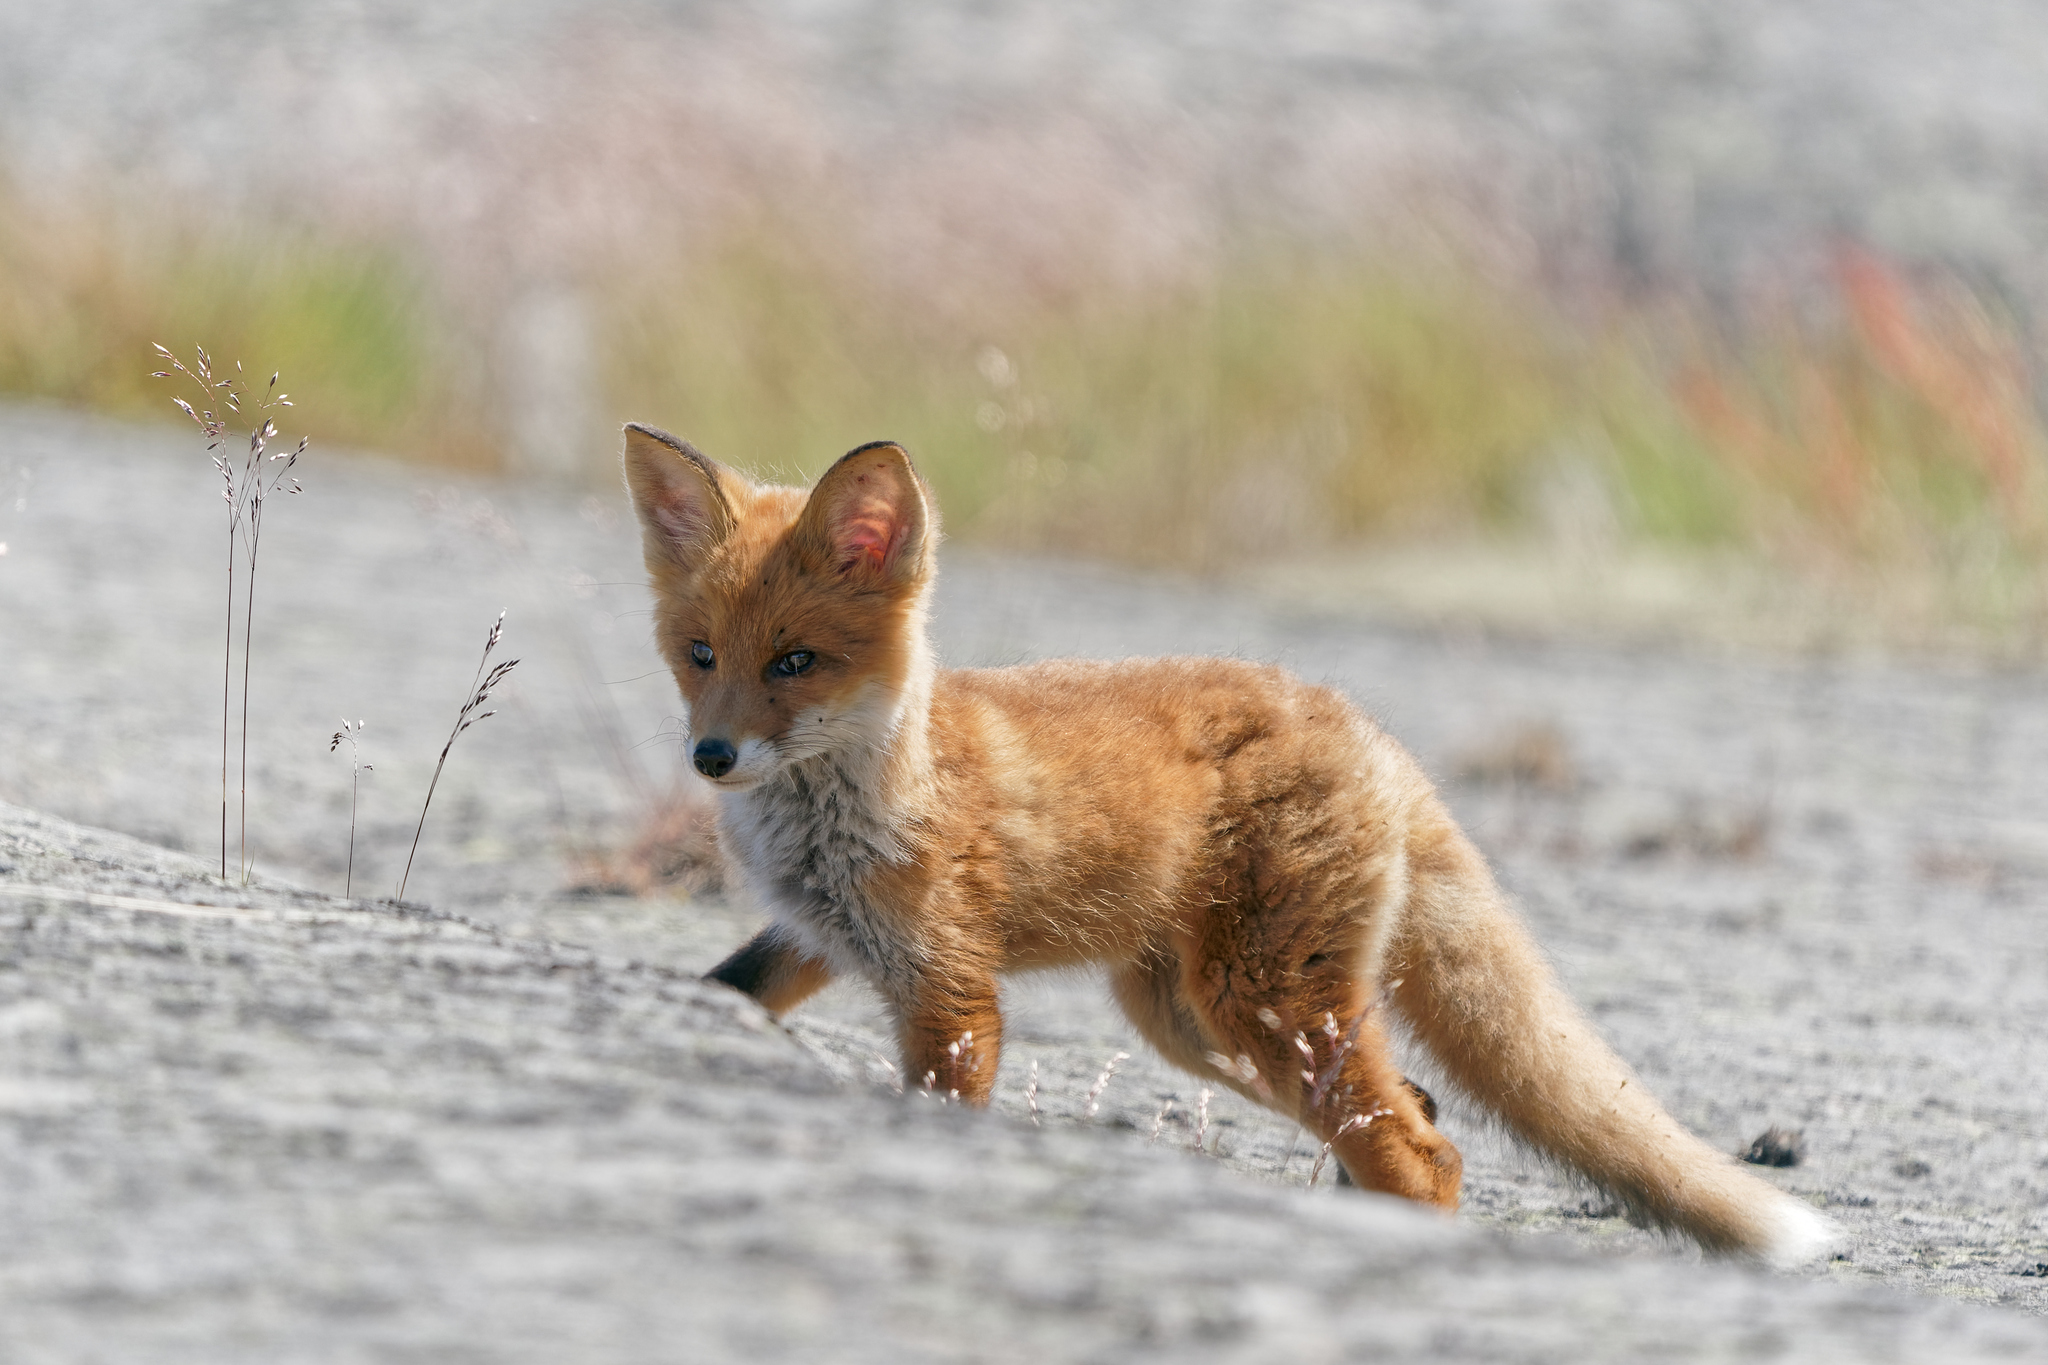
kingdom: Animalia
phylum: Chordata
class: Mammalia
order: Carnivora
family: Canidae
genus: Vulpes
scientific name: Vulpes vulpes
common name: Red fox
